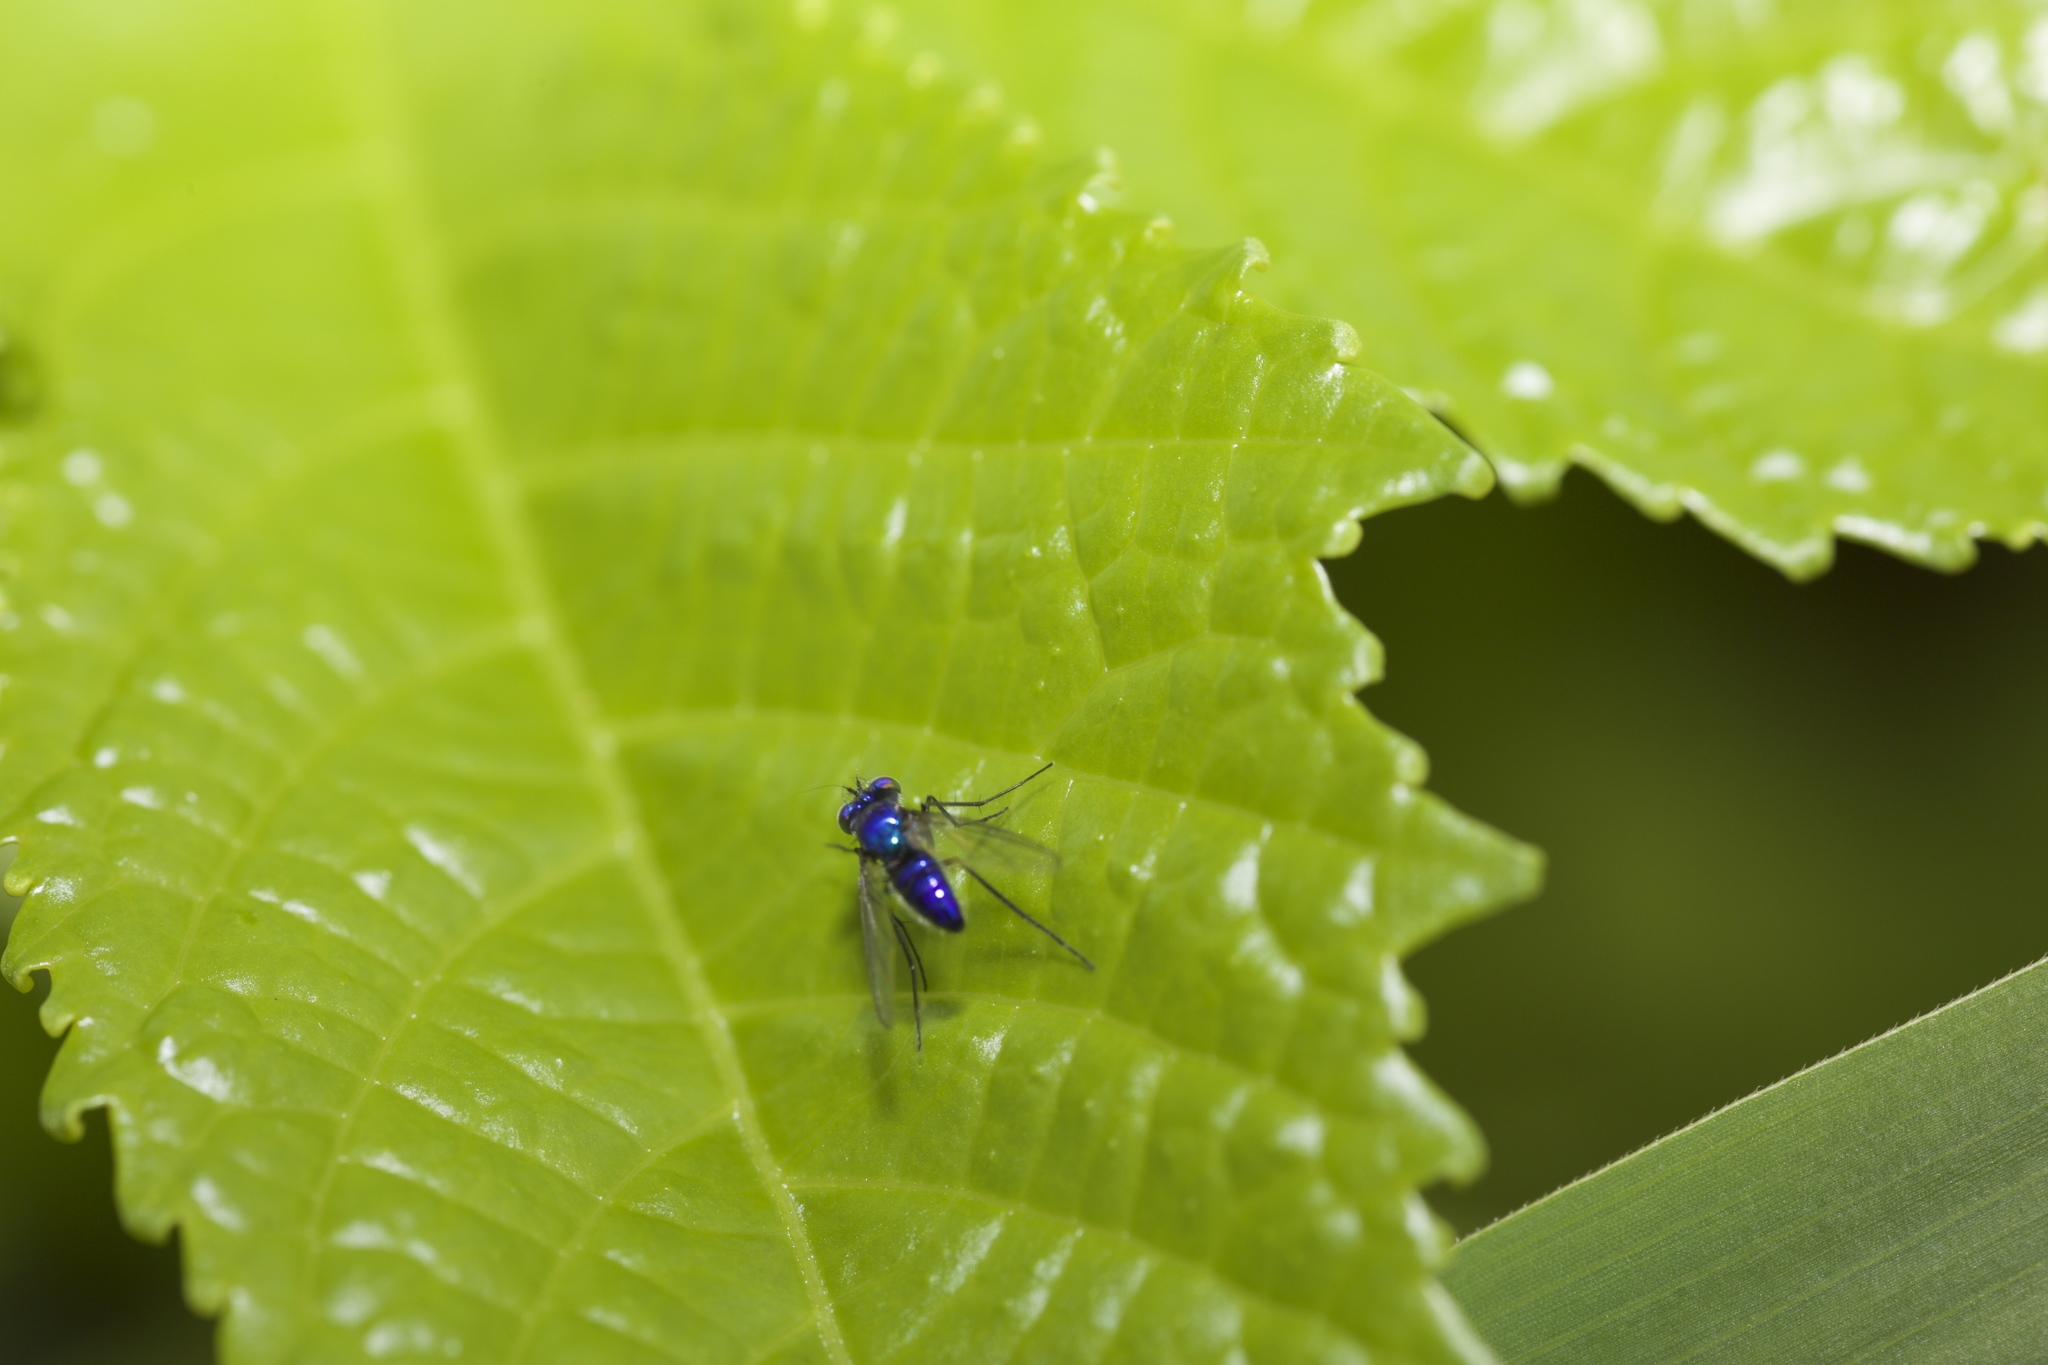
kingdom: Animalia
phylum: Arthropoda
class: Insecta
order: Diptera
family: Dolichopodidae
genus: Condylostylus
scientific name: Condylostylus mundus
